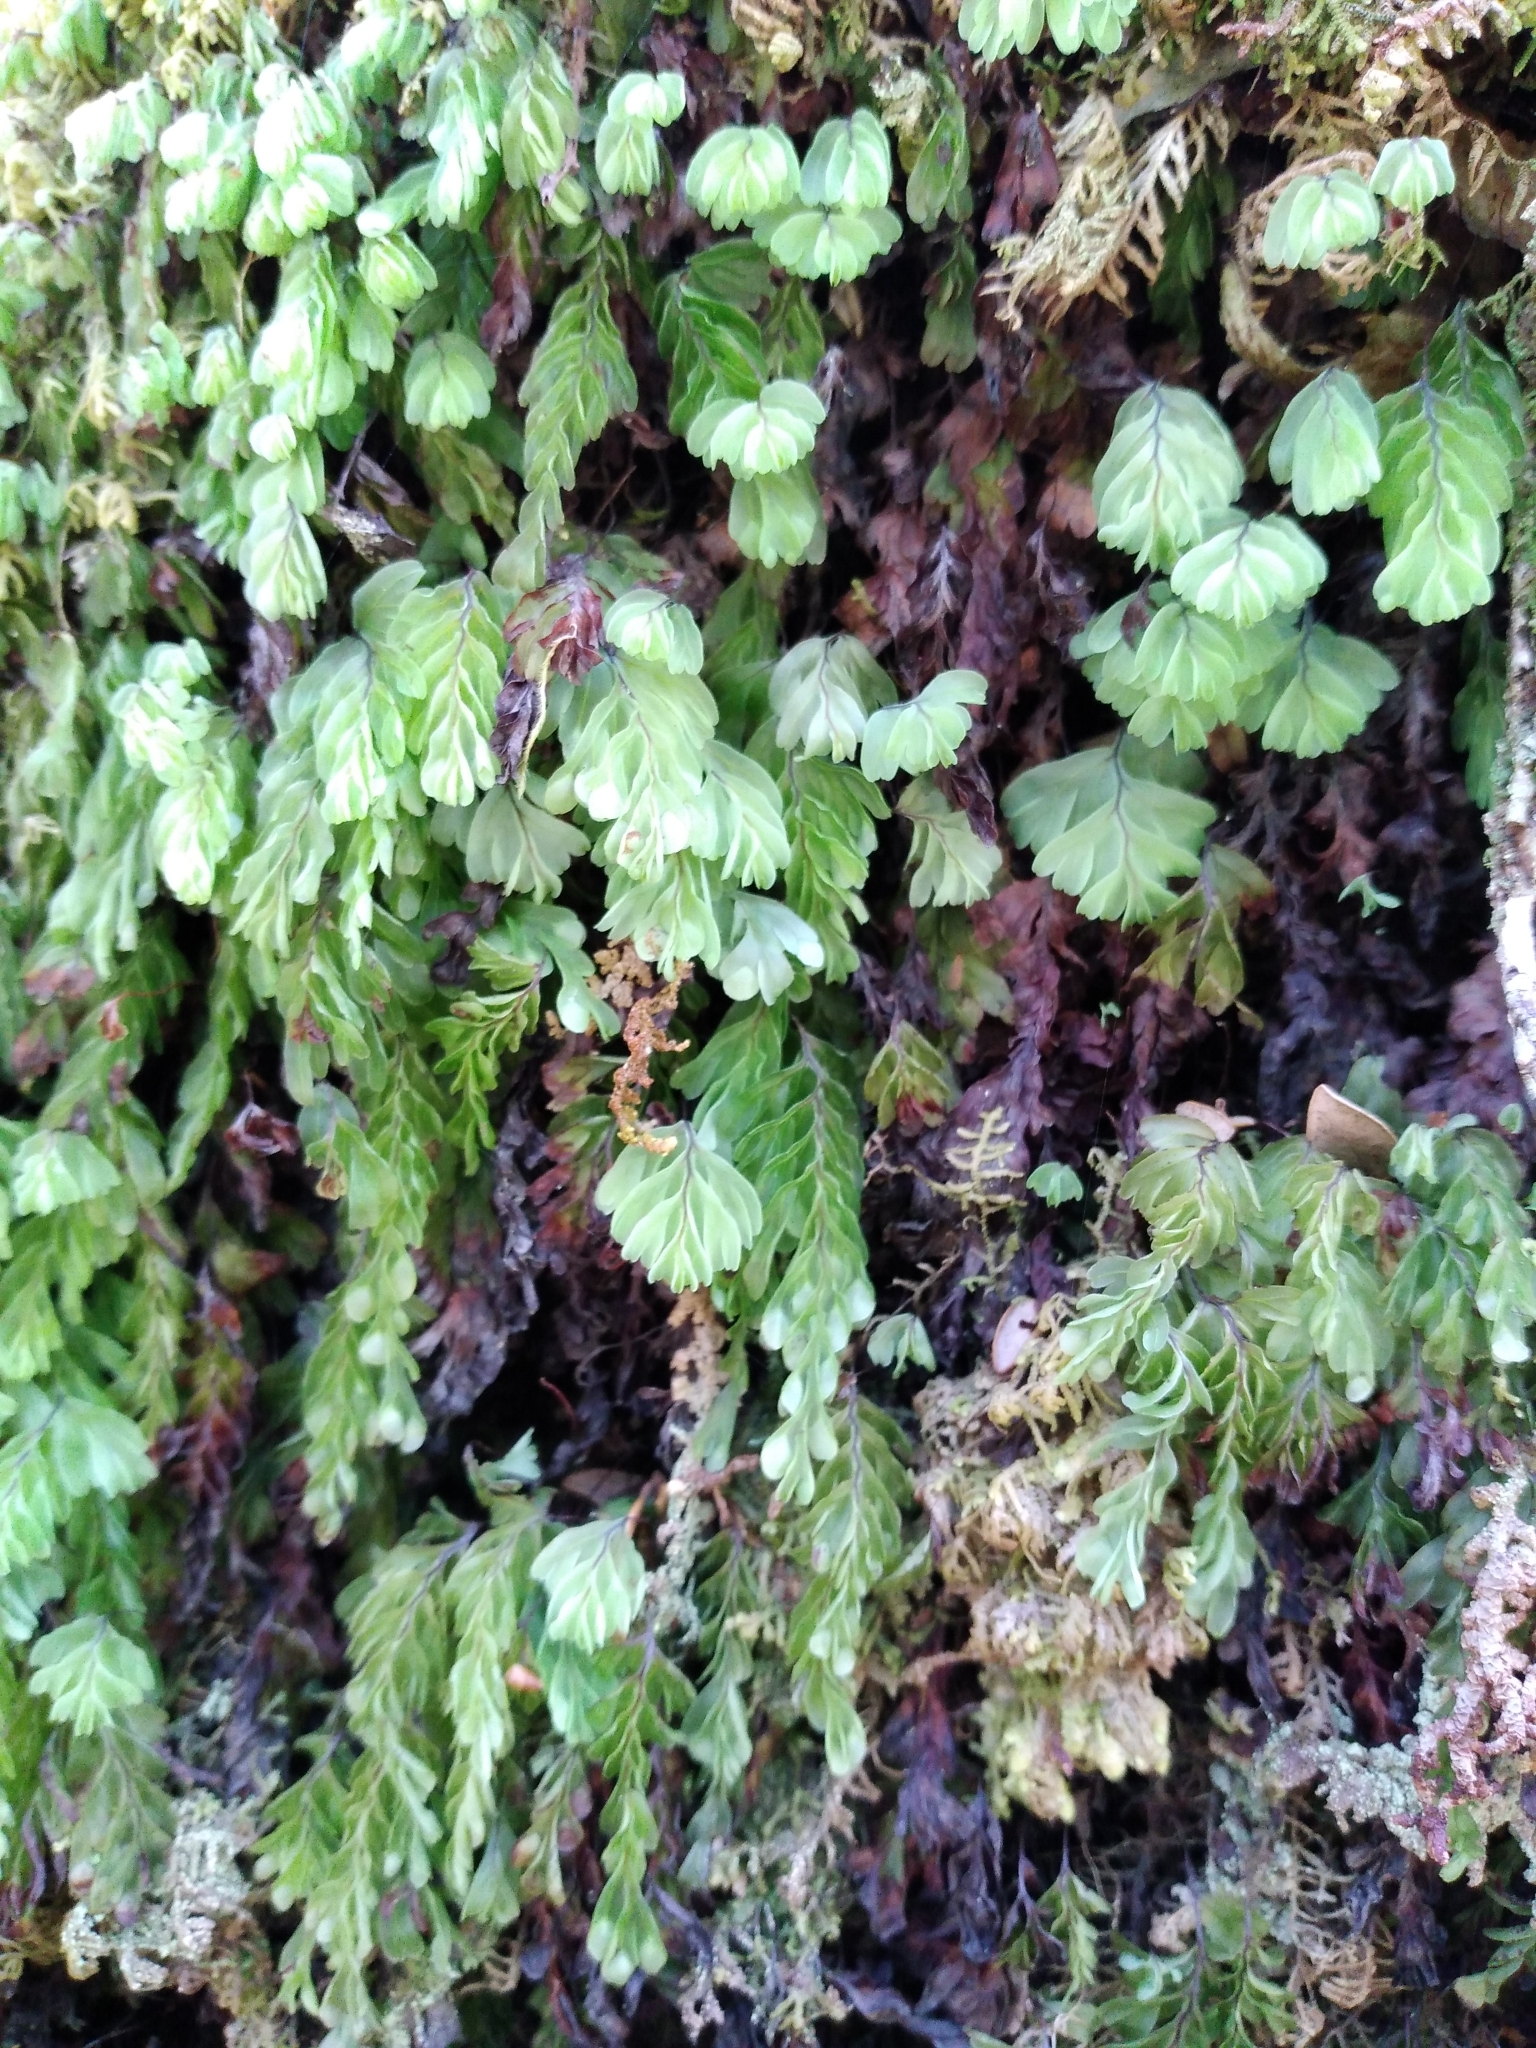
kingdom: Plantae
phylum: Tracheophyta
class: Polypodiopsida
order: Hymenophyllales
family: Hymenophyllaceae
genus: Hymenophyllum
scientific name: Hymenophyllum rarum
